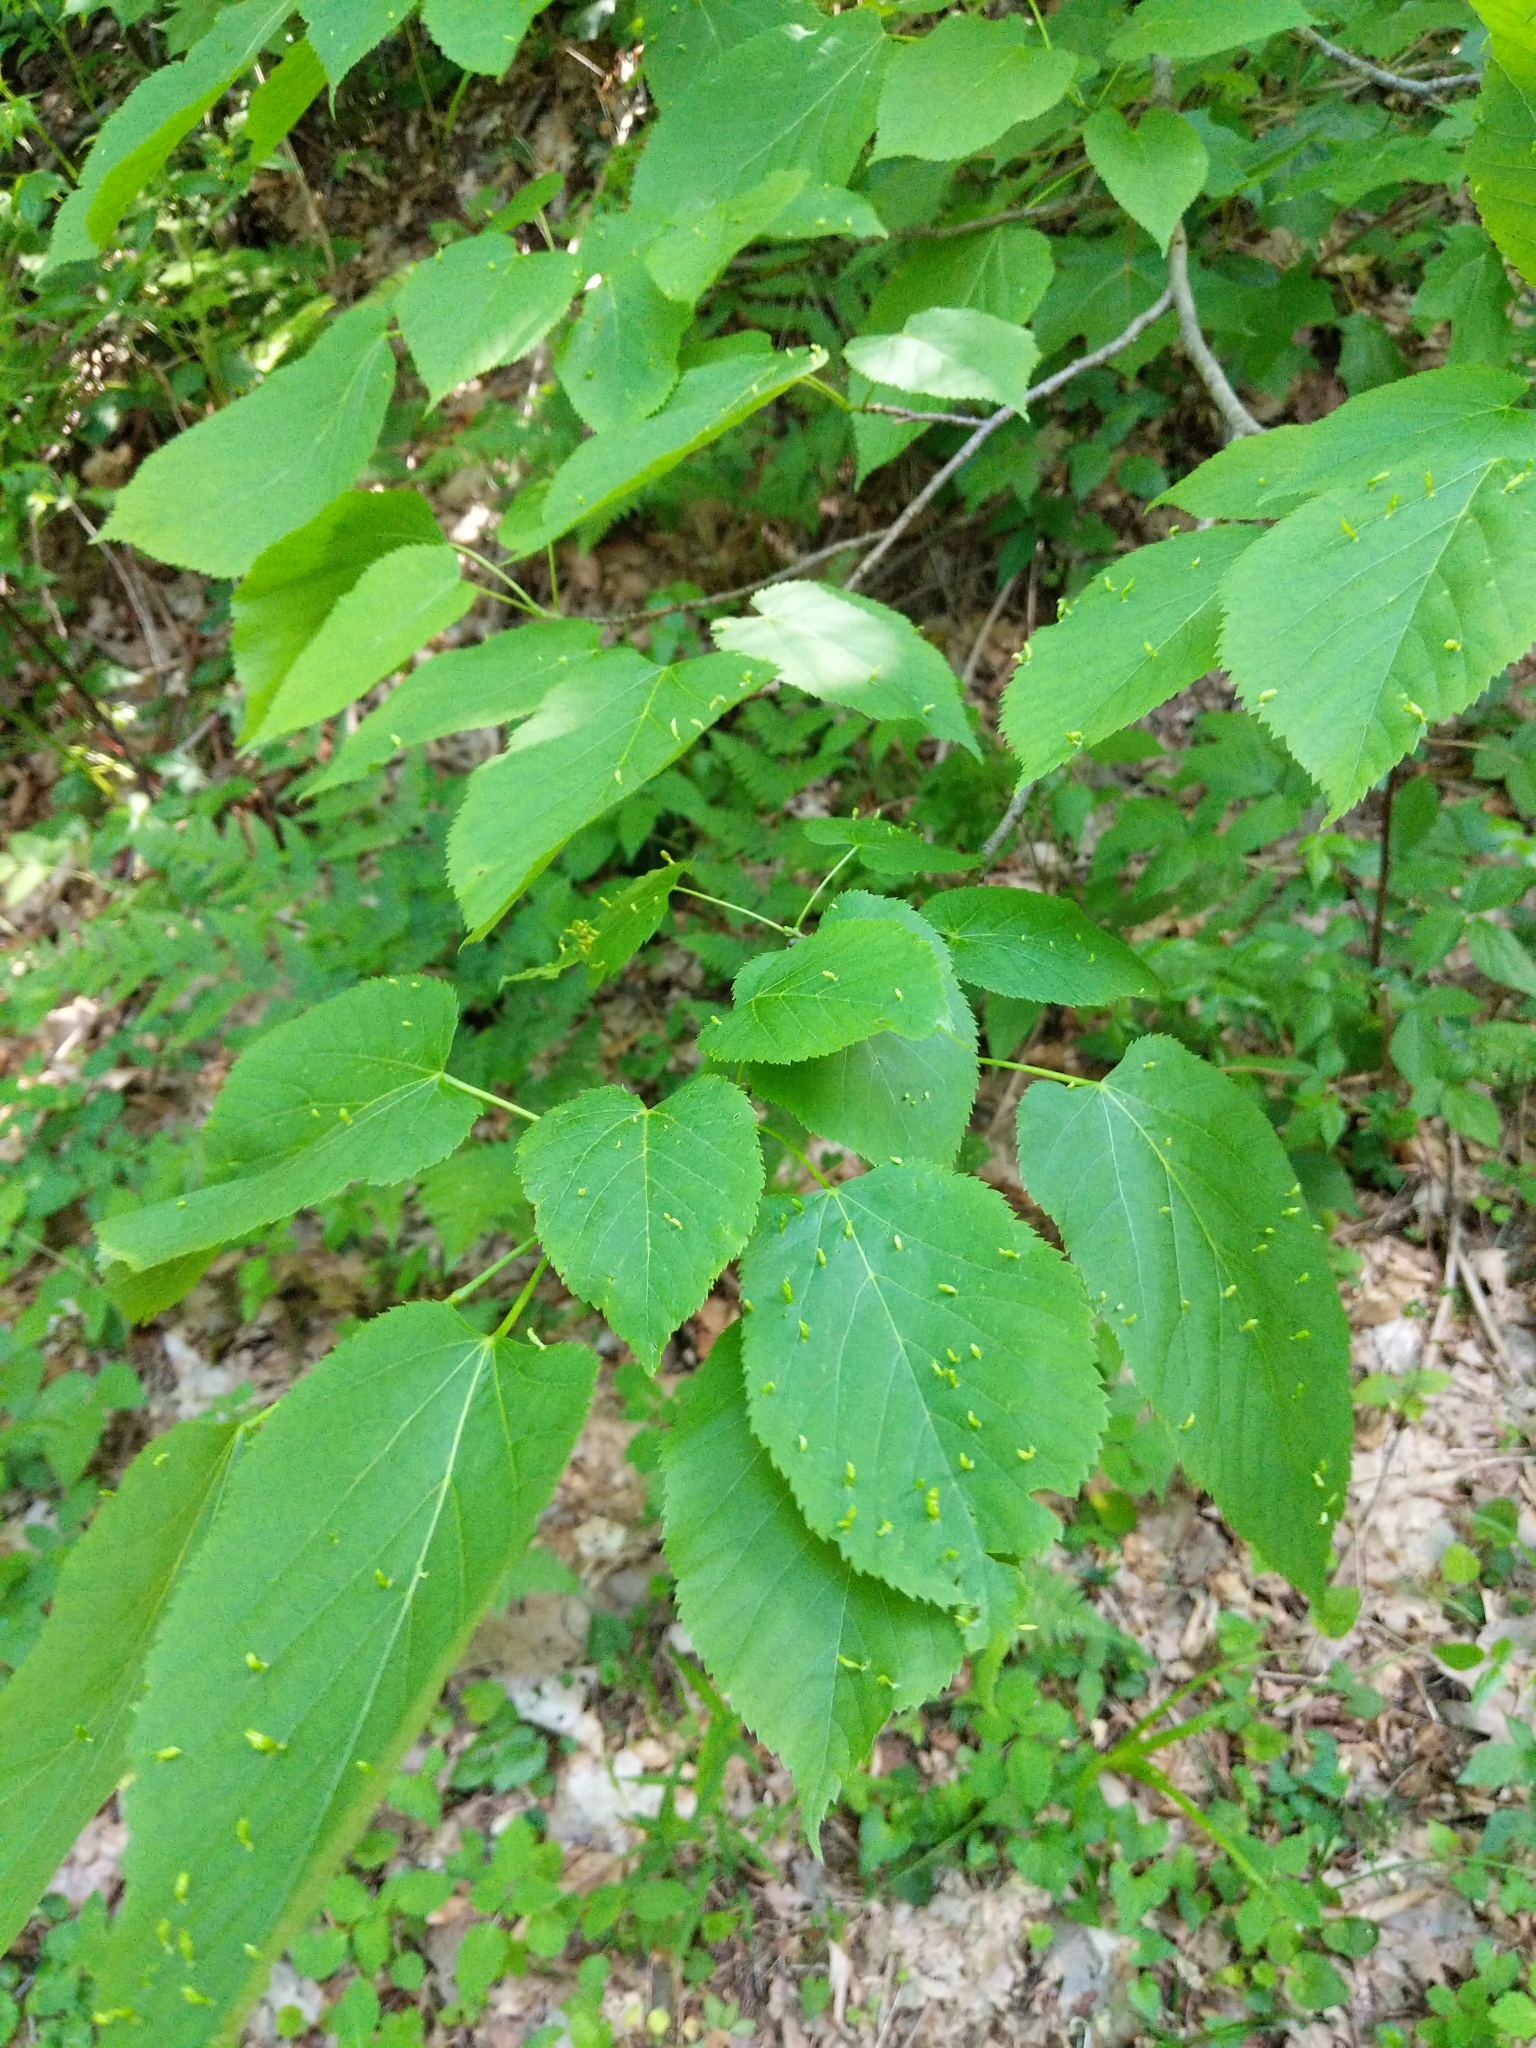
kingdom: Plantae
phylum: Tracheophyta
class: Magnoliopsida
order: Malvales
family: Malvaceae
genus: Tilia
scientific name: Tilia americana
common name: Basswood
